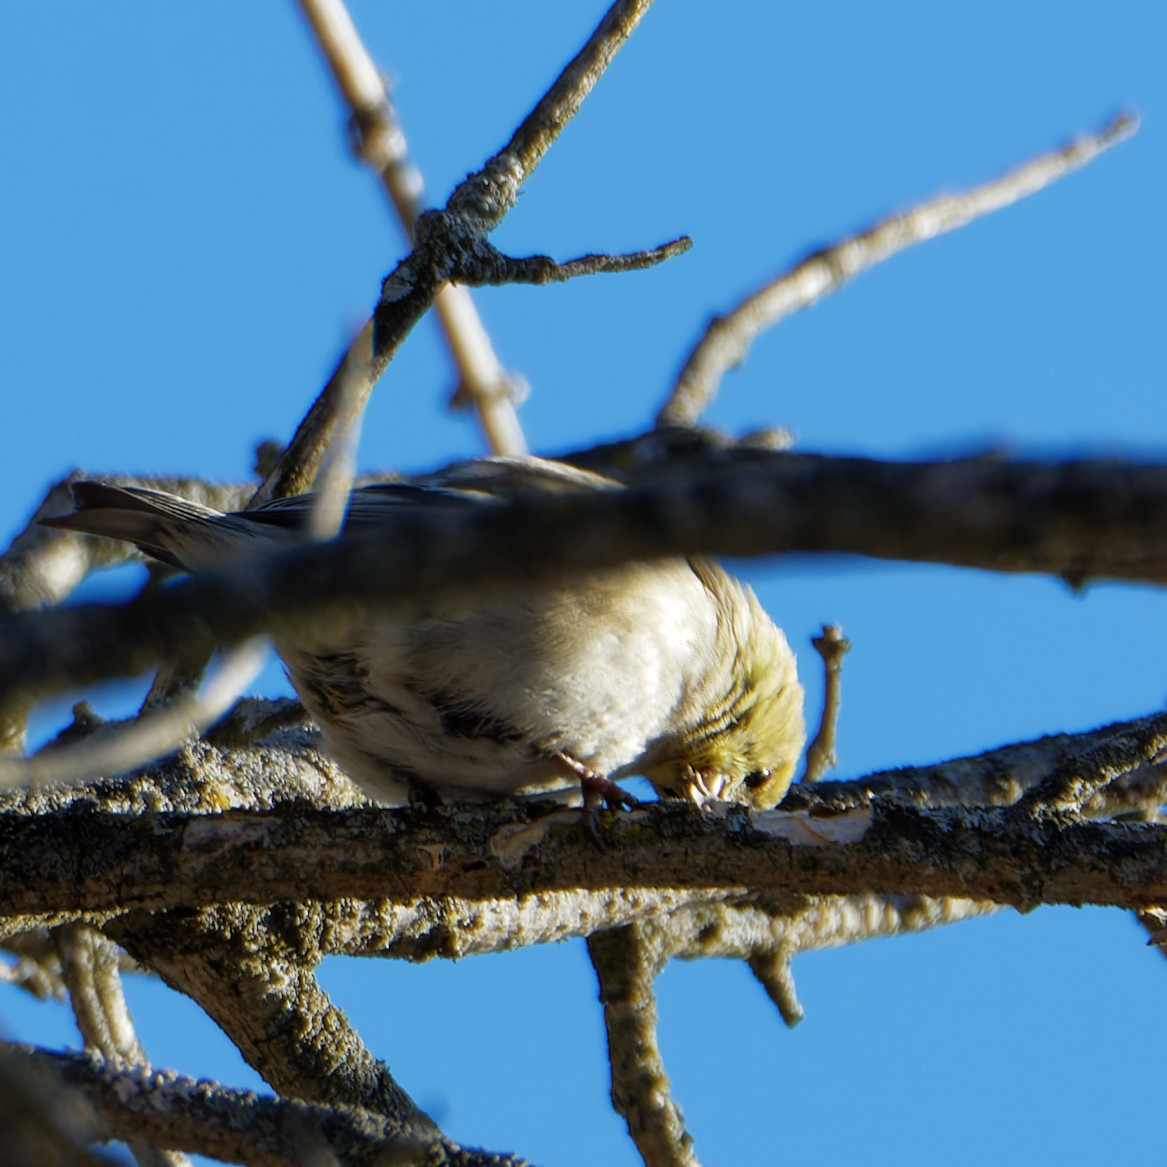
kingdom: Animalia
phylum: Chordata
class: Aves
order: Passeriformes
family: Fringillidae
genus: Spinus
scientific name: Spinus tristis
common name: American goldfinch
